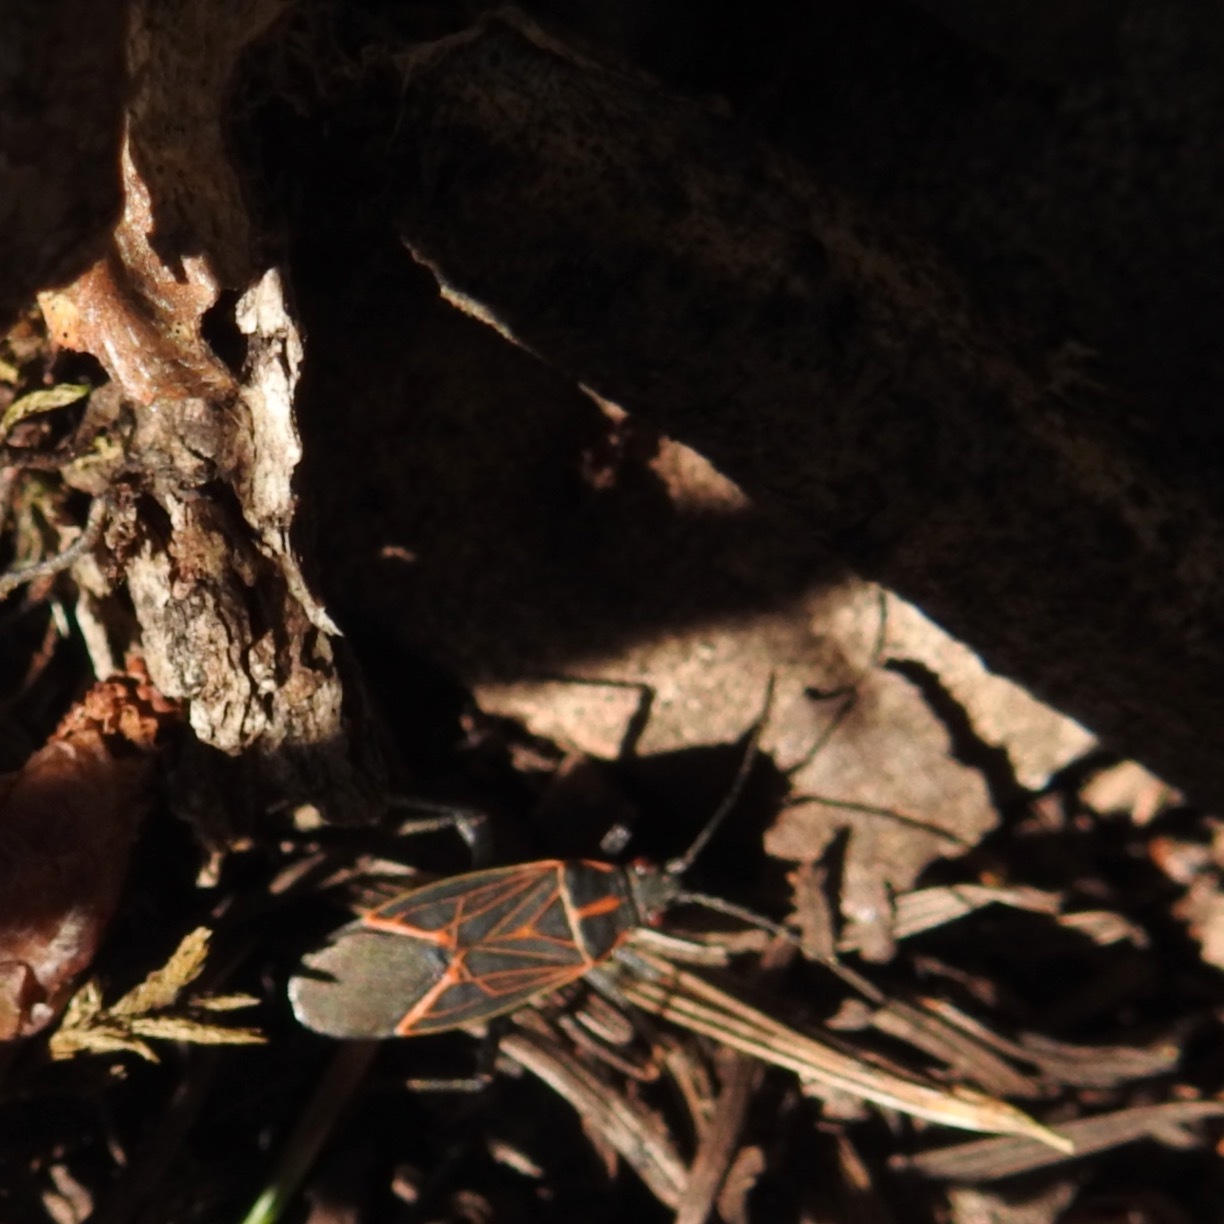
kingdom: Animalia
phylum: Arthropoda
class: Insecta
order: Hemiptera
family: Rhopalidae
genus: Boisea
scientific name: Boisea rubrolineata
